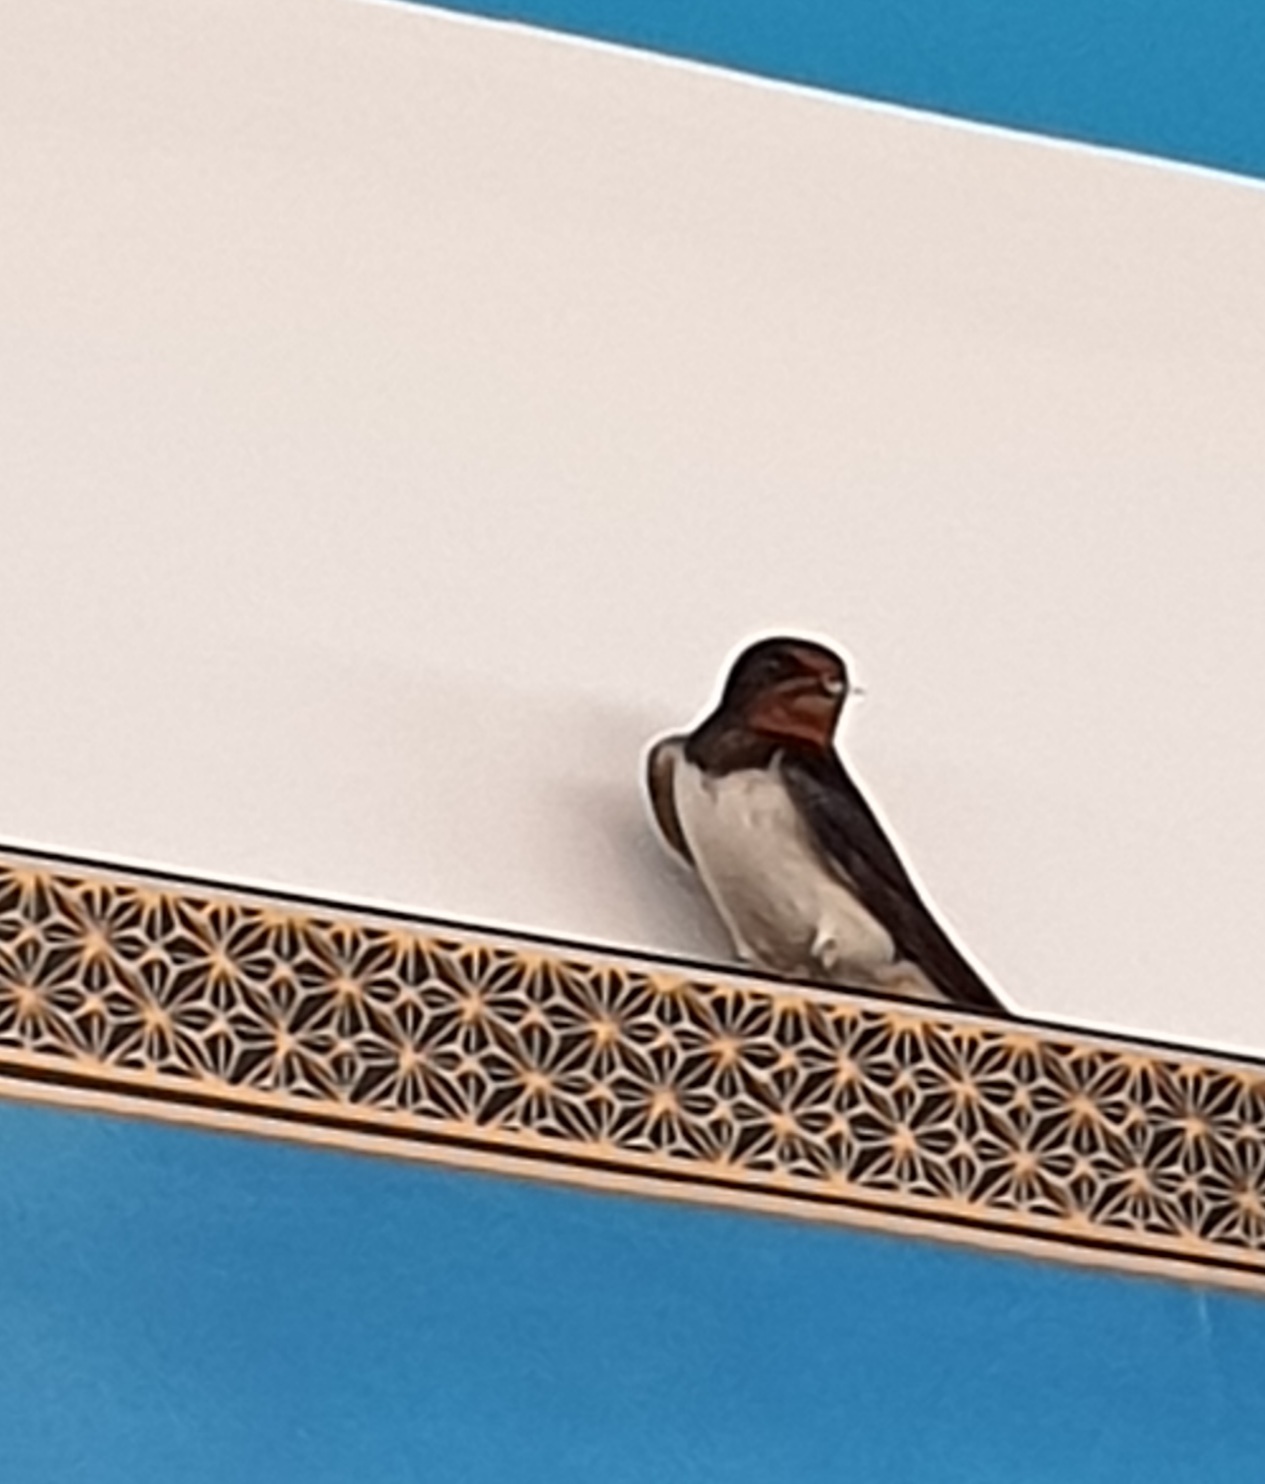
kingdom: Animalia
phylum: Chordata
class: Aves
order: Passeriformes
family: Hirundinidae
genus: Hirundo
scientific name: Hirundo rustica
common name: Barn swallow
